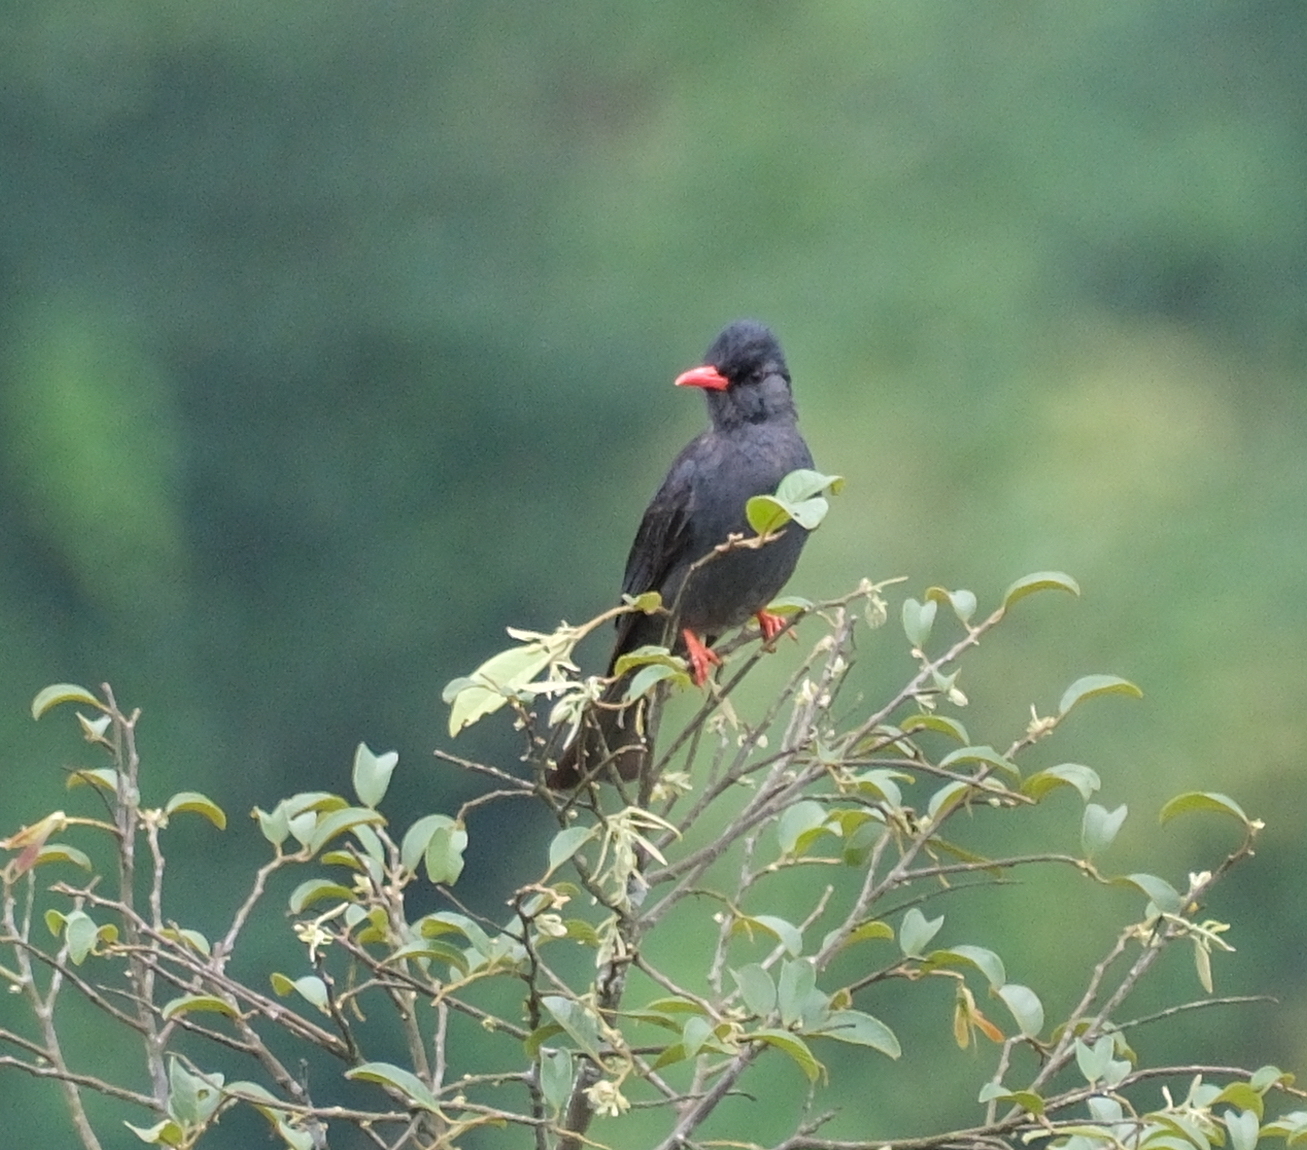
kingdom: Animalia
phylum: Chordata
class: Aves
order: Passeriformes
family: Pycnonotidae
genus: Hypsipetes
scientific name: Hypsipetes leucocephalus
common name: Black bulbul
